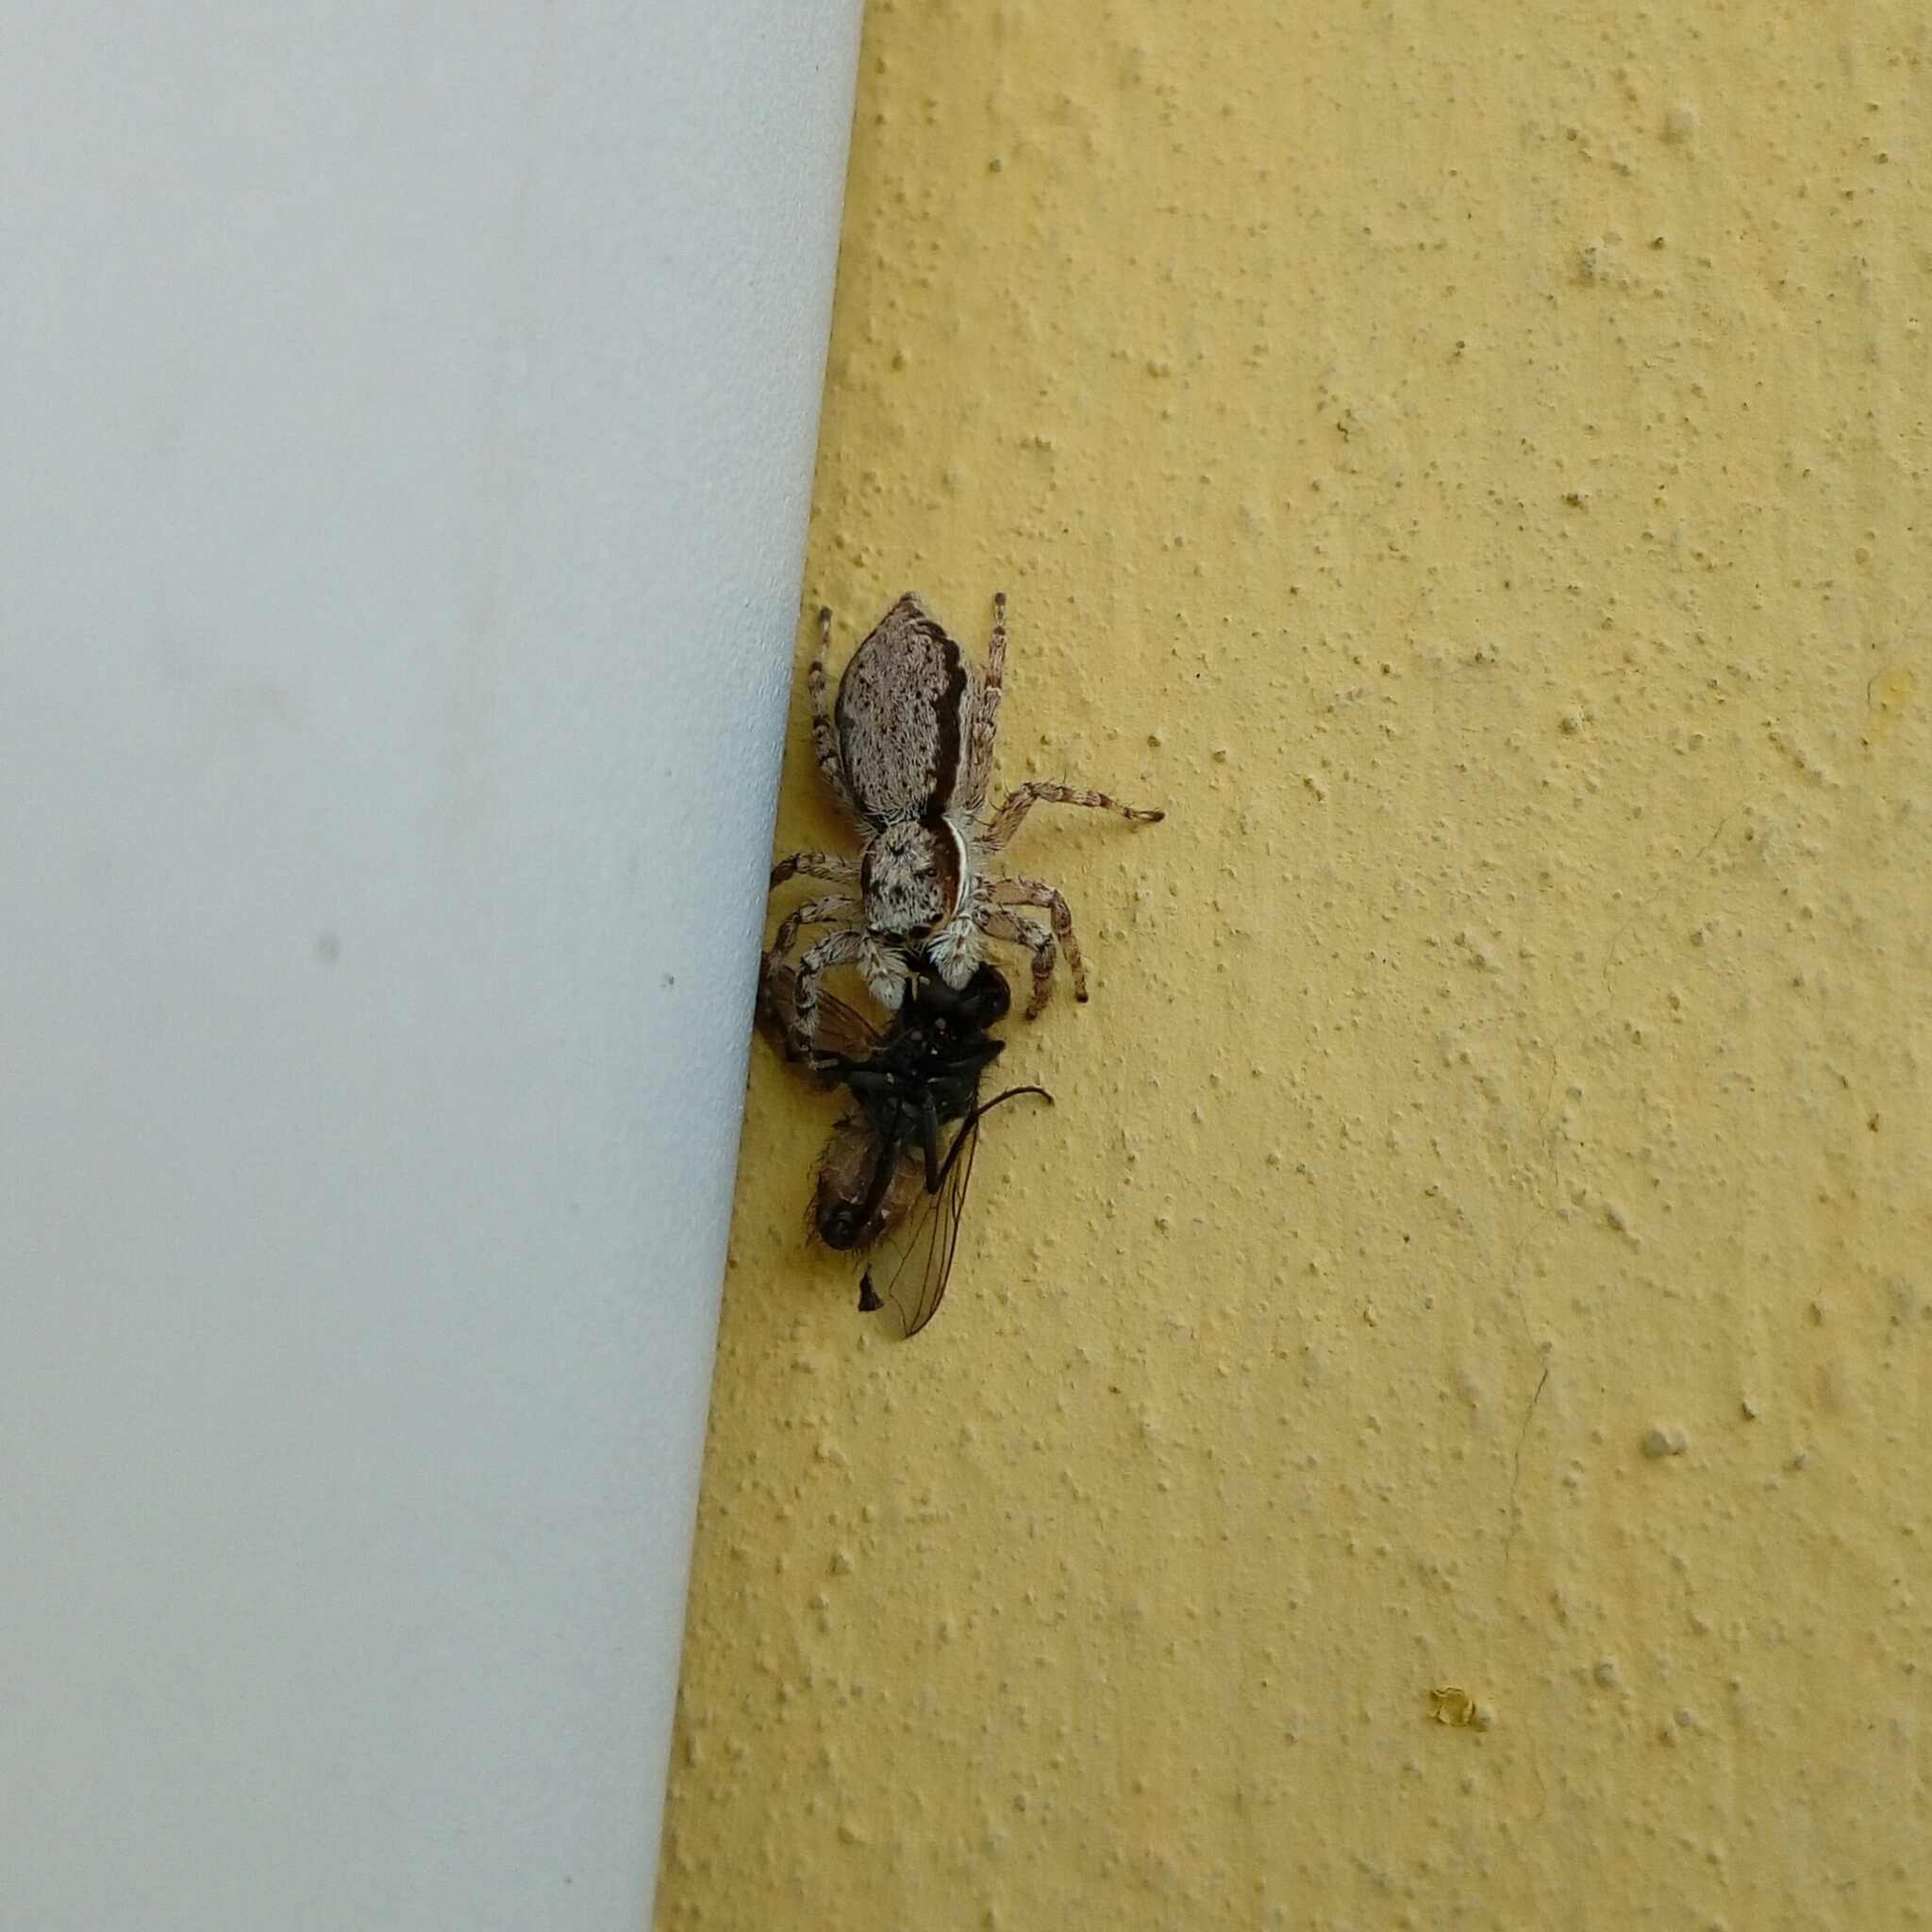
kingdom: Animalia
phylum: Arthropoda
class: Arachnida
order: Araneae
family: Salticidae
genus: Menemerus
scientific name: Menemerus bivittatus
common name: Gray wall jumper
